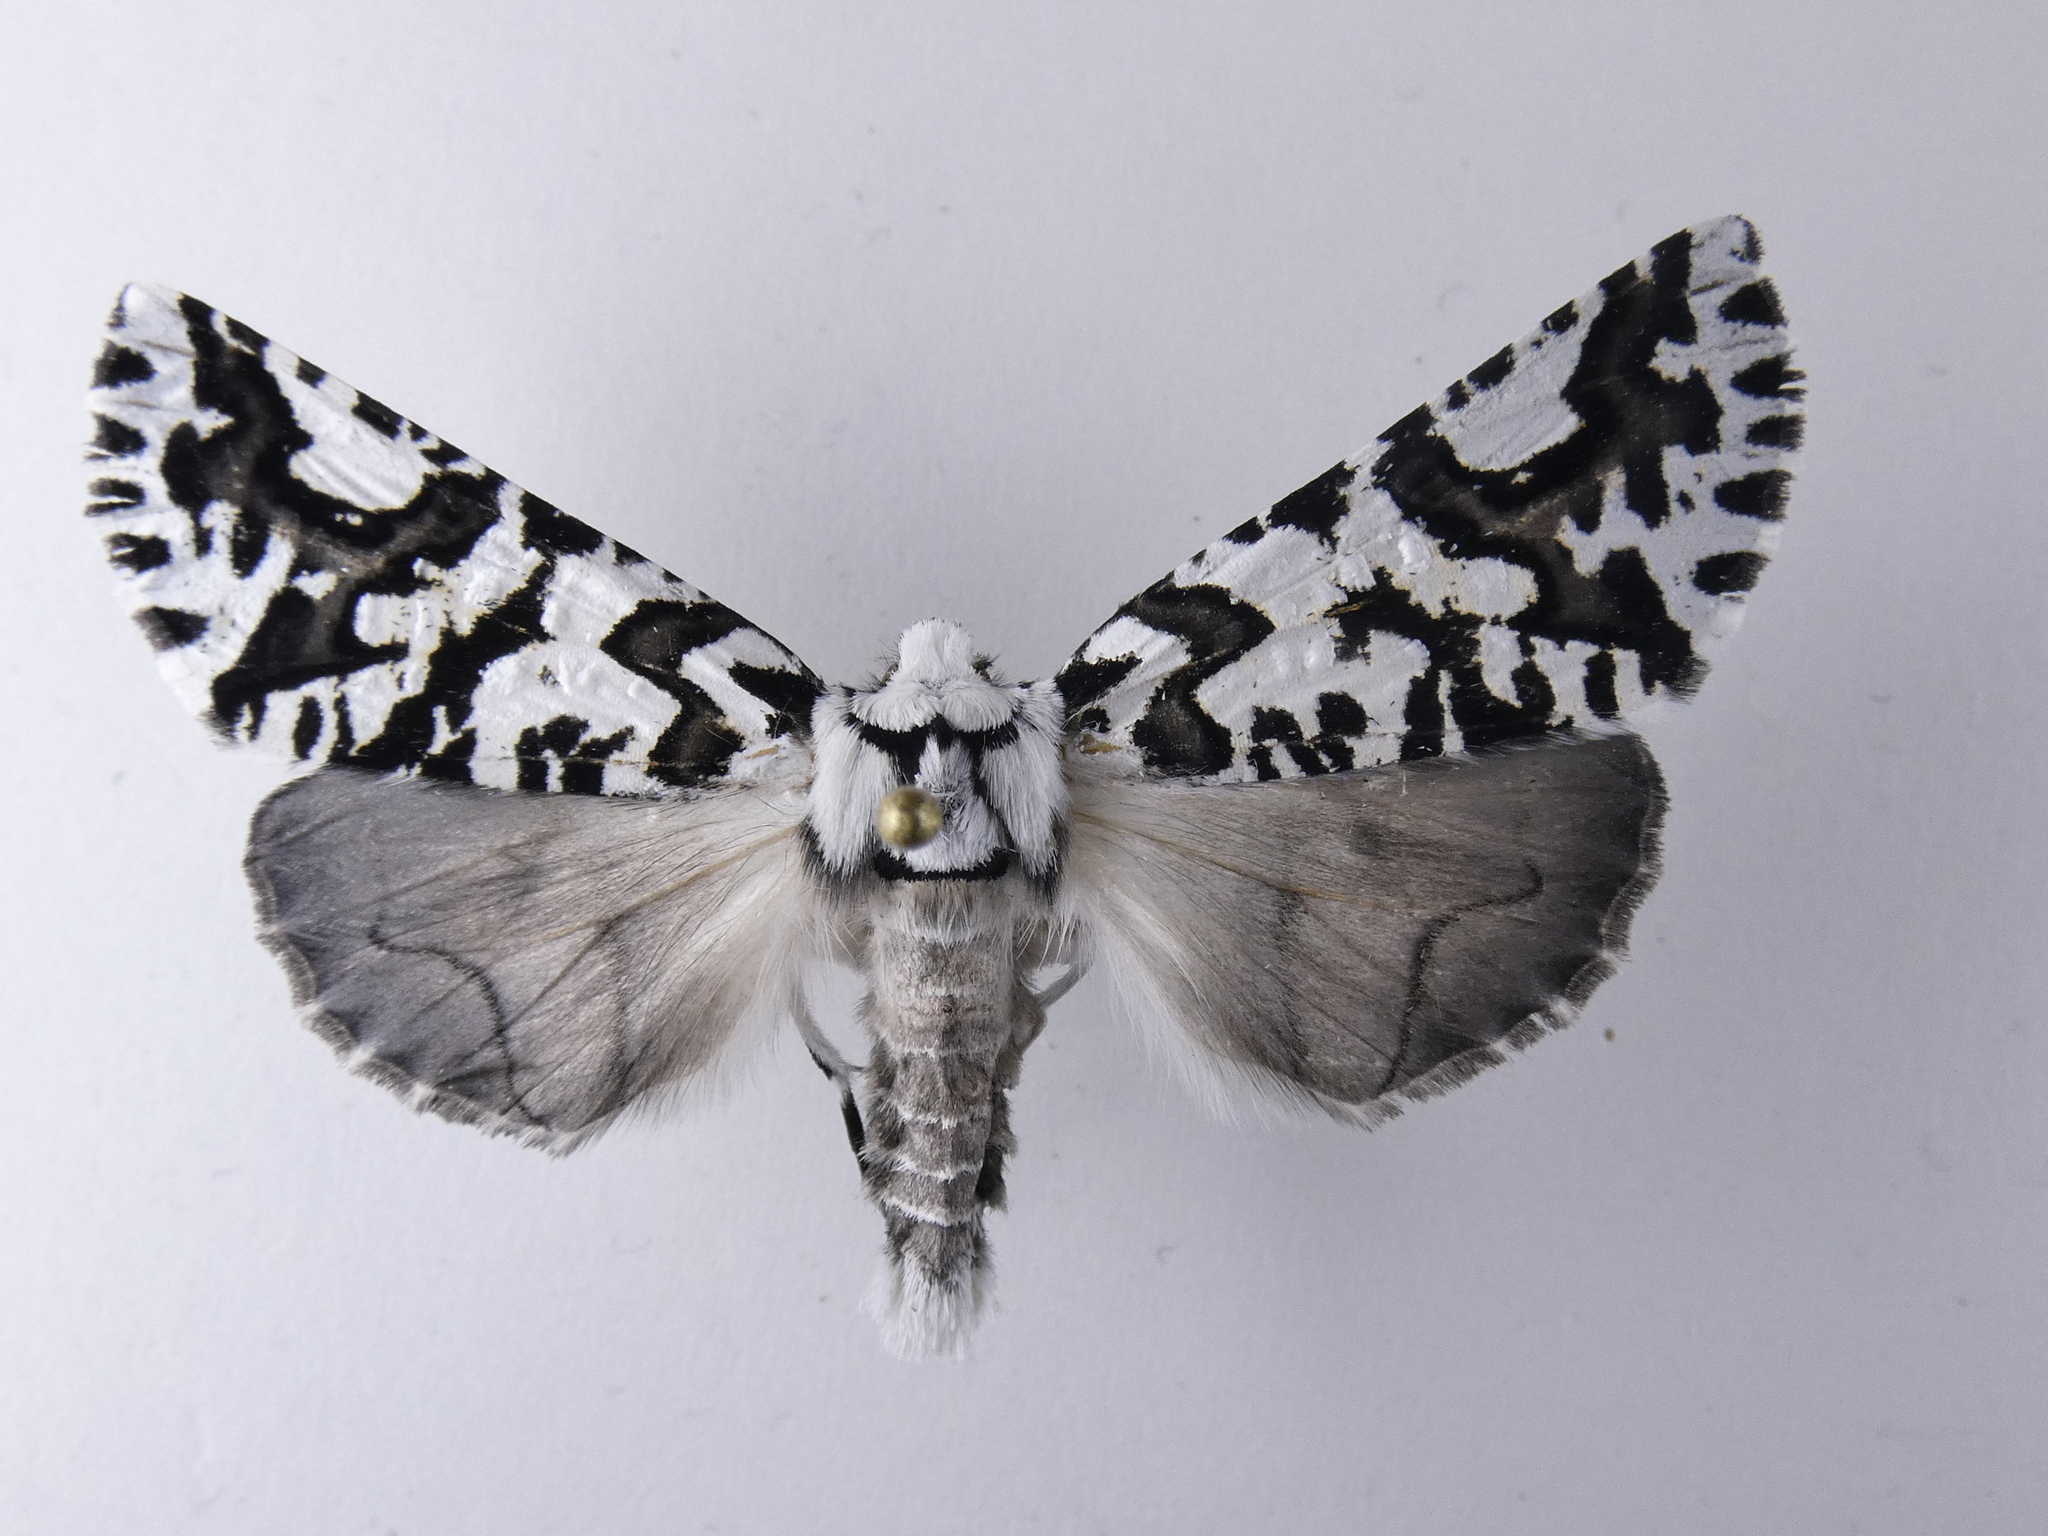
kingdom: Animalia
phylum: Arthropoda
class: Insecta
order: Lepidoptera
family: Geometridae
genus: Declana
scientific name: Declana
